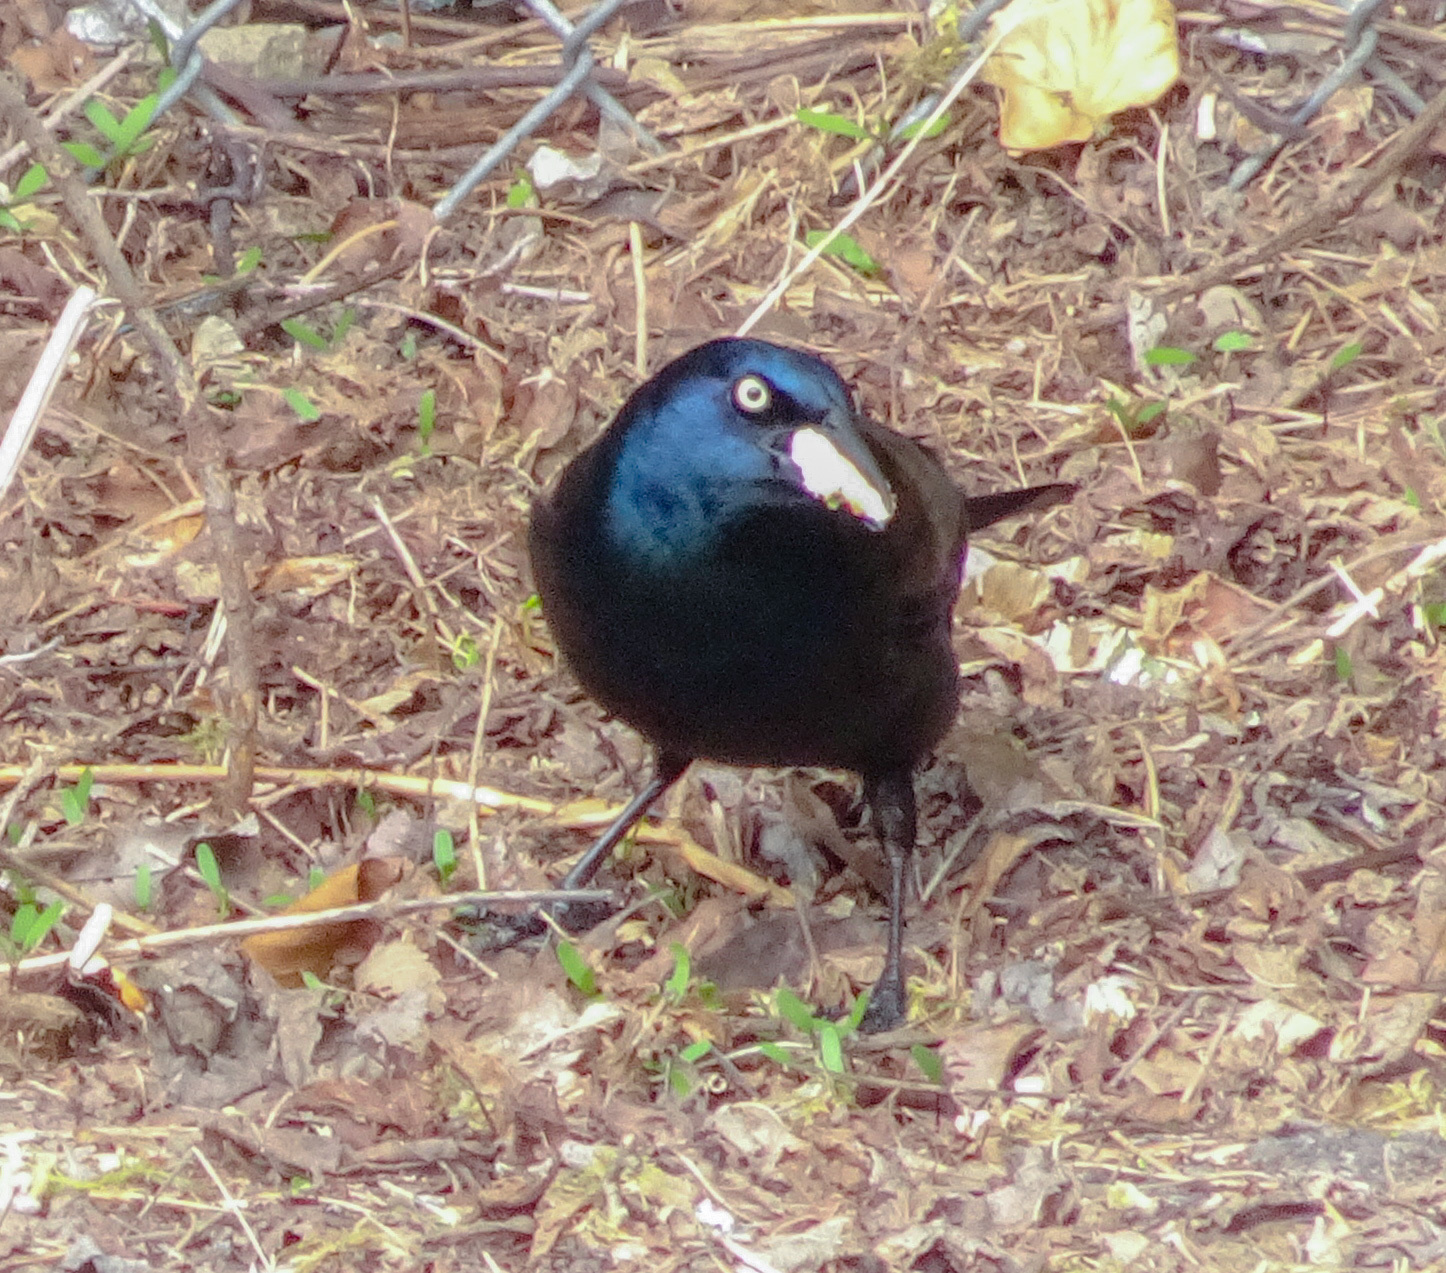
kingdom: Animalia
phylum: Chordata
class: Aves
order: Passeriformes
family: Icteridae
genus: Quiscalus
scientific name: Quiscalus quiscula
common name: Common grackle
